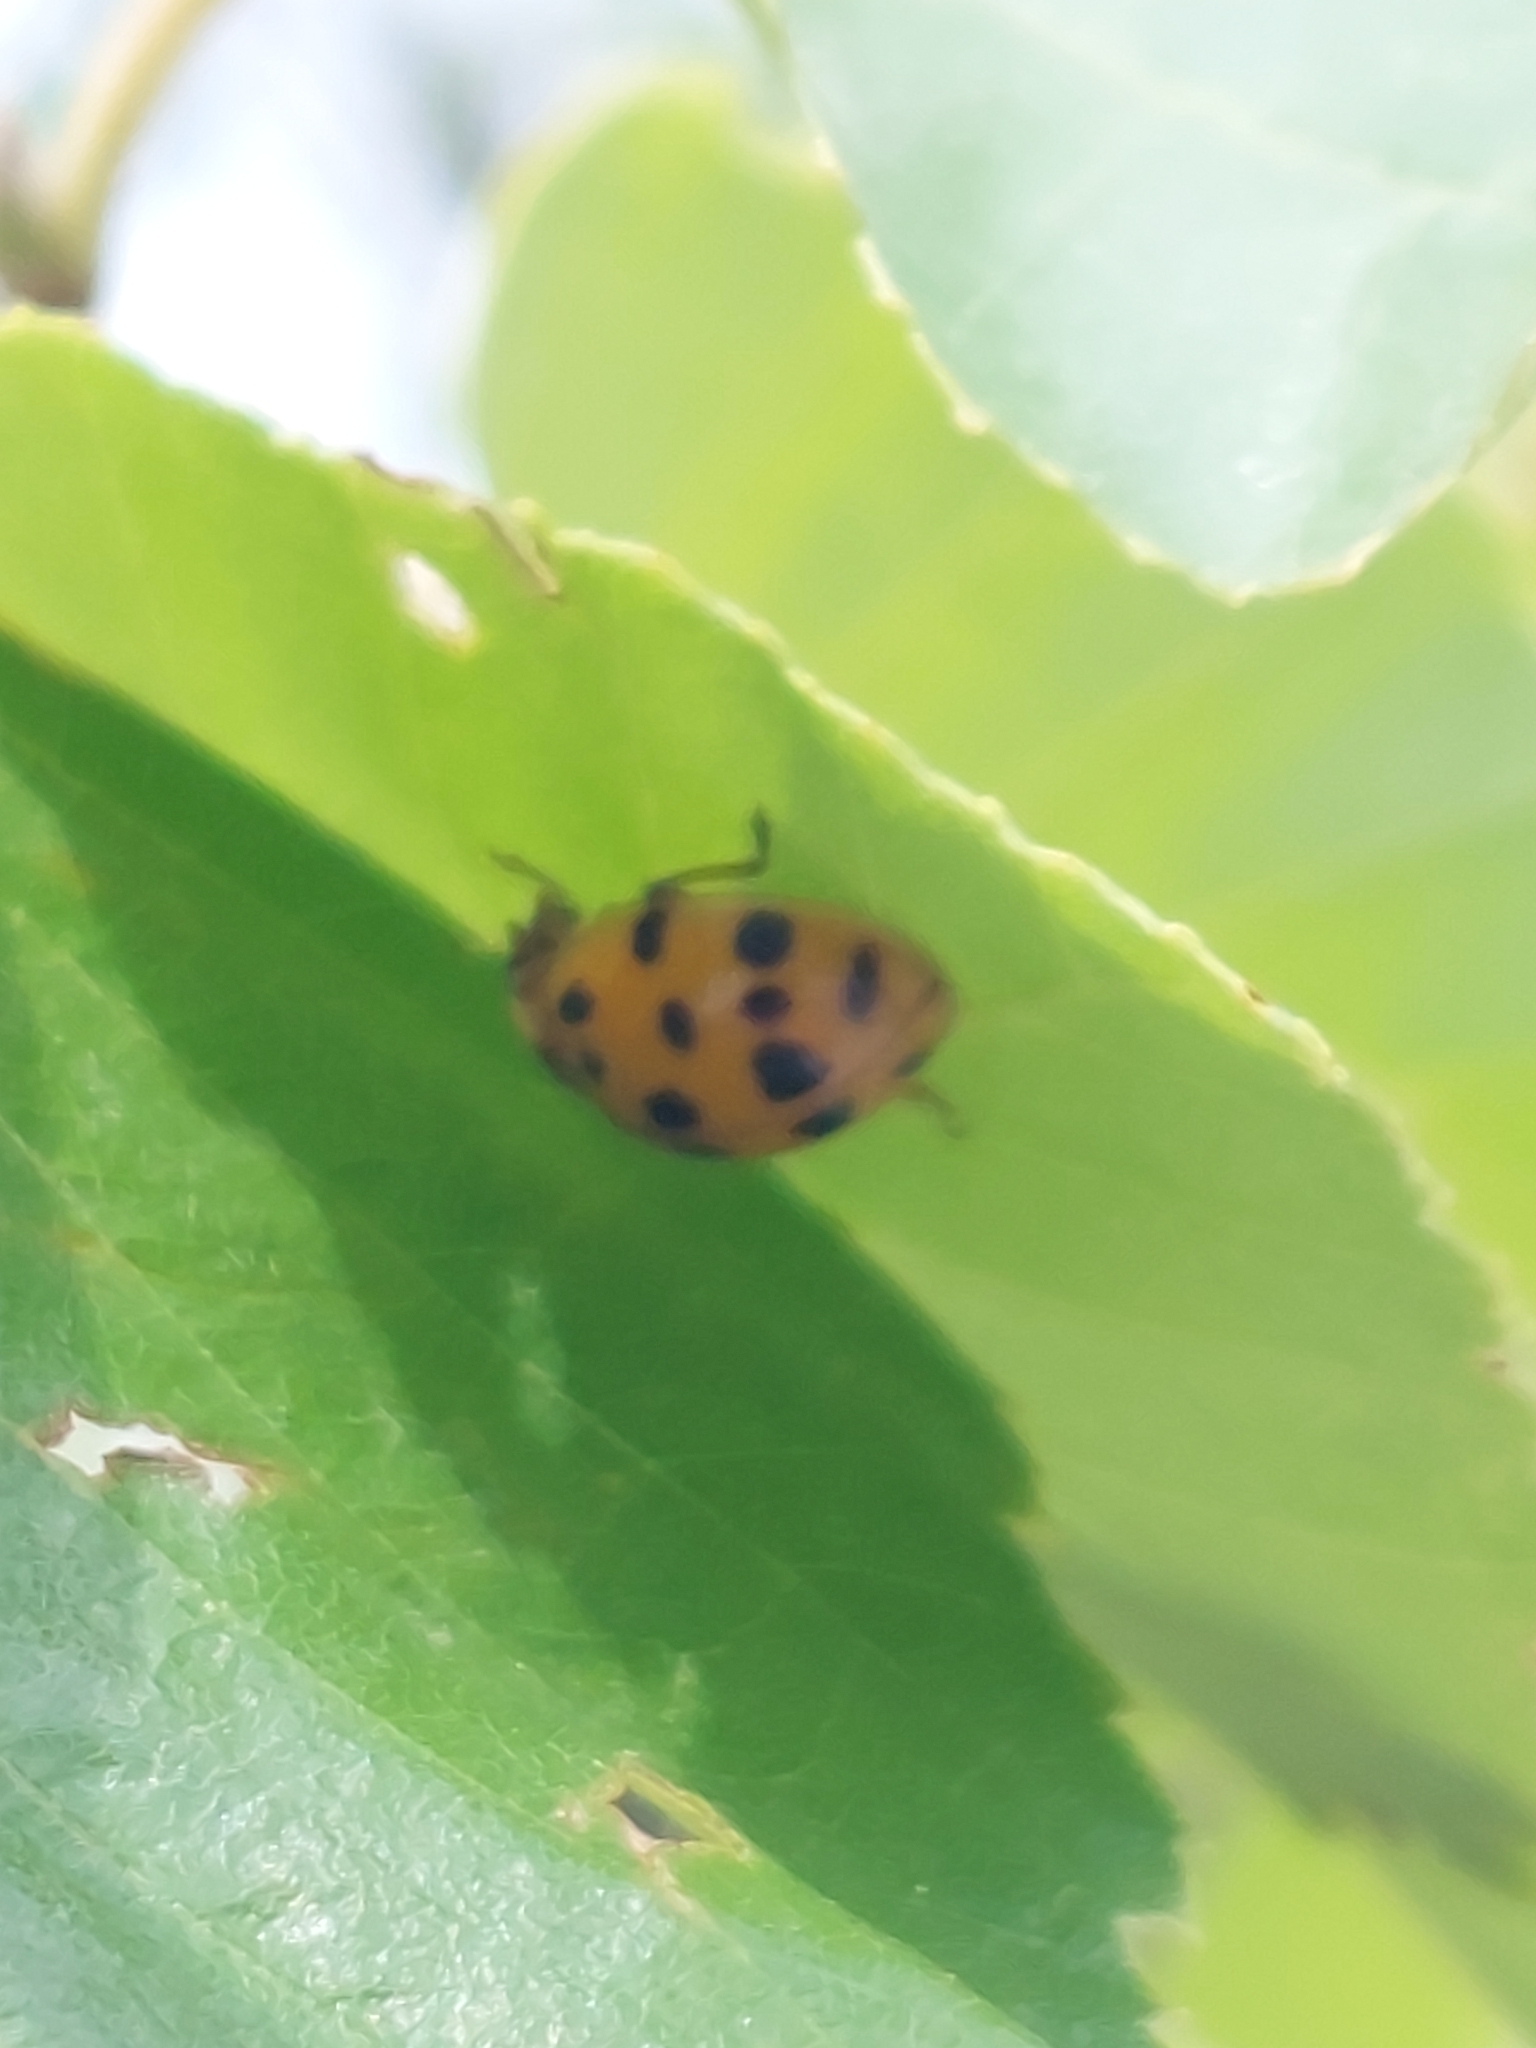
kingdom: Animalia
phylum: Arthropoda
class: Insecta
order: Coleoptera
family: Coccinellidae
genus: Harmonia
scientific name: Harmonia axyridis
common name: Harlequin ladybird
